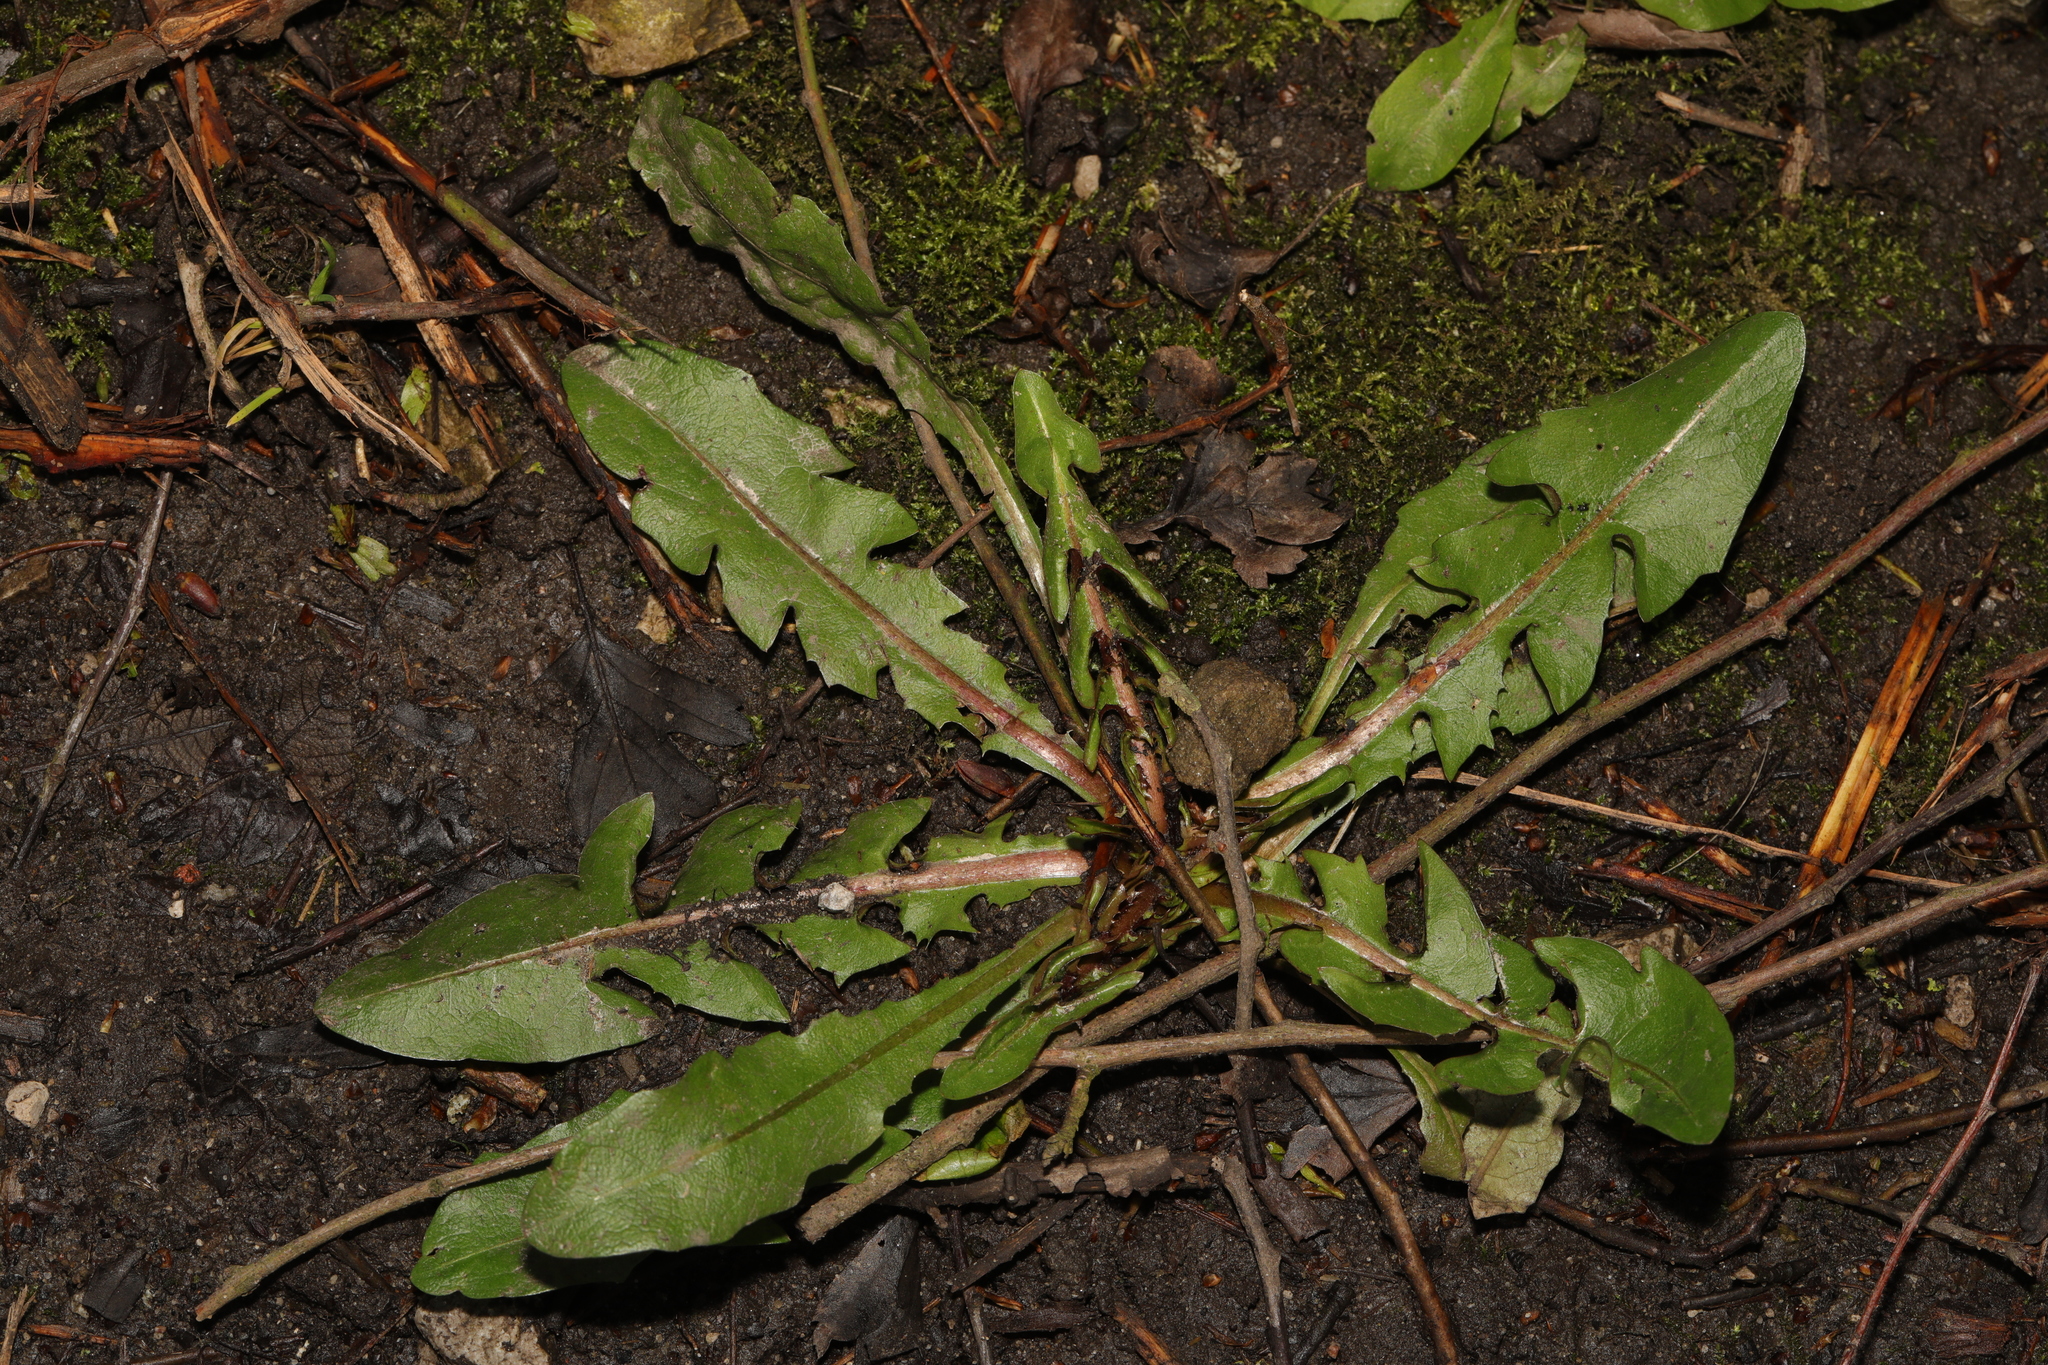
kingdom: Plantae
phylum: Tracheophyta
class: Magnoliopsida
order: Asterales
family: Asteraceae
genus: Taraxacum
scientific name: Taraxacum officinale
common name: Common dandelion
